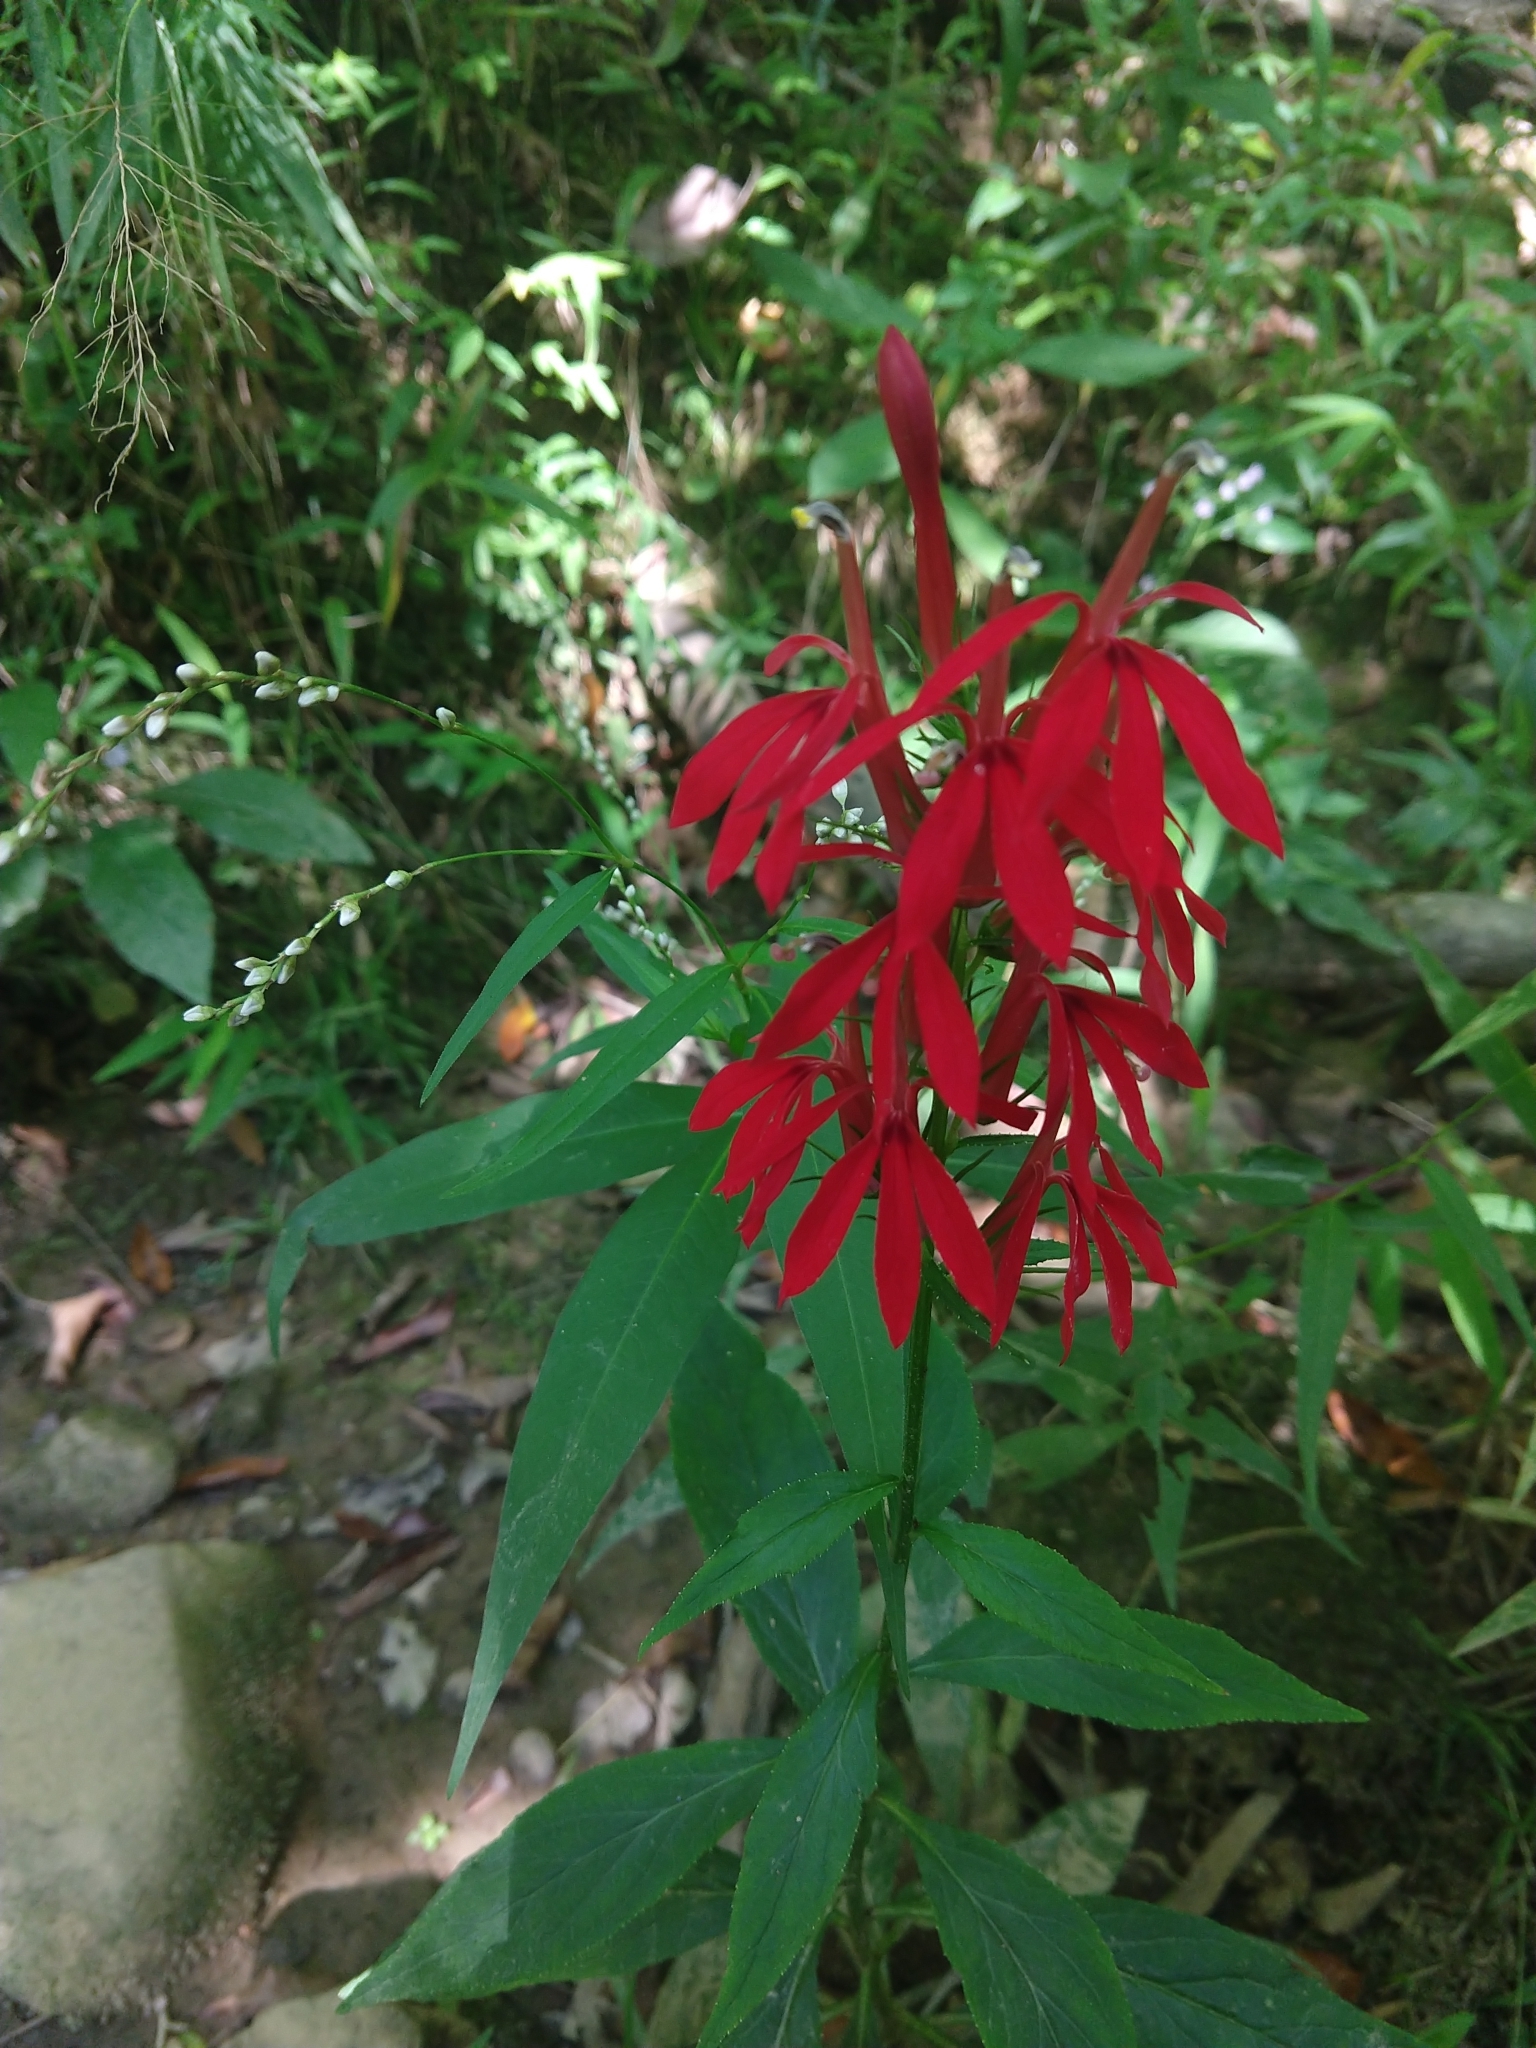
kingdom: Plantae
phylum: Tracheophyta
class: Magnoliopsida
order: Asterales
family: Campanulaceae
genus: Lobelia
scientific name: Lobelia cardinalis
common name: Cardinal flower
